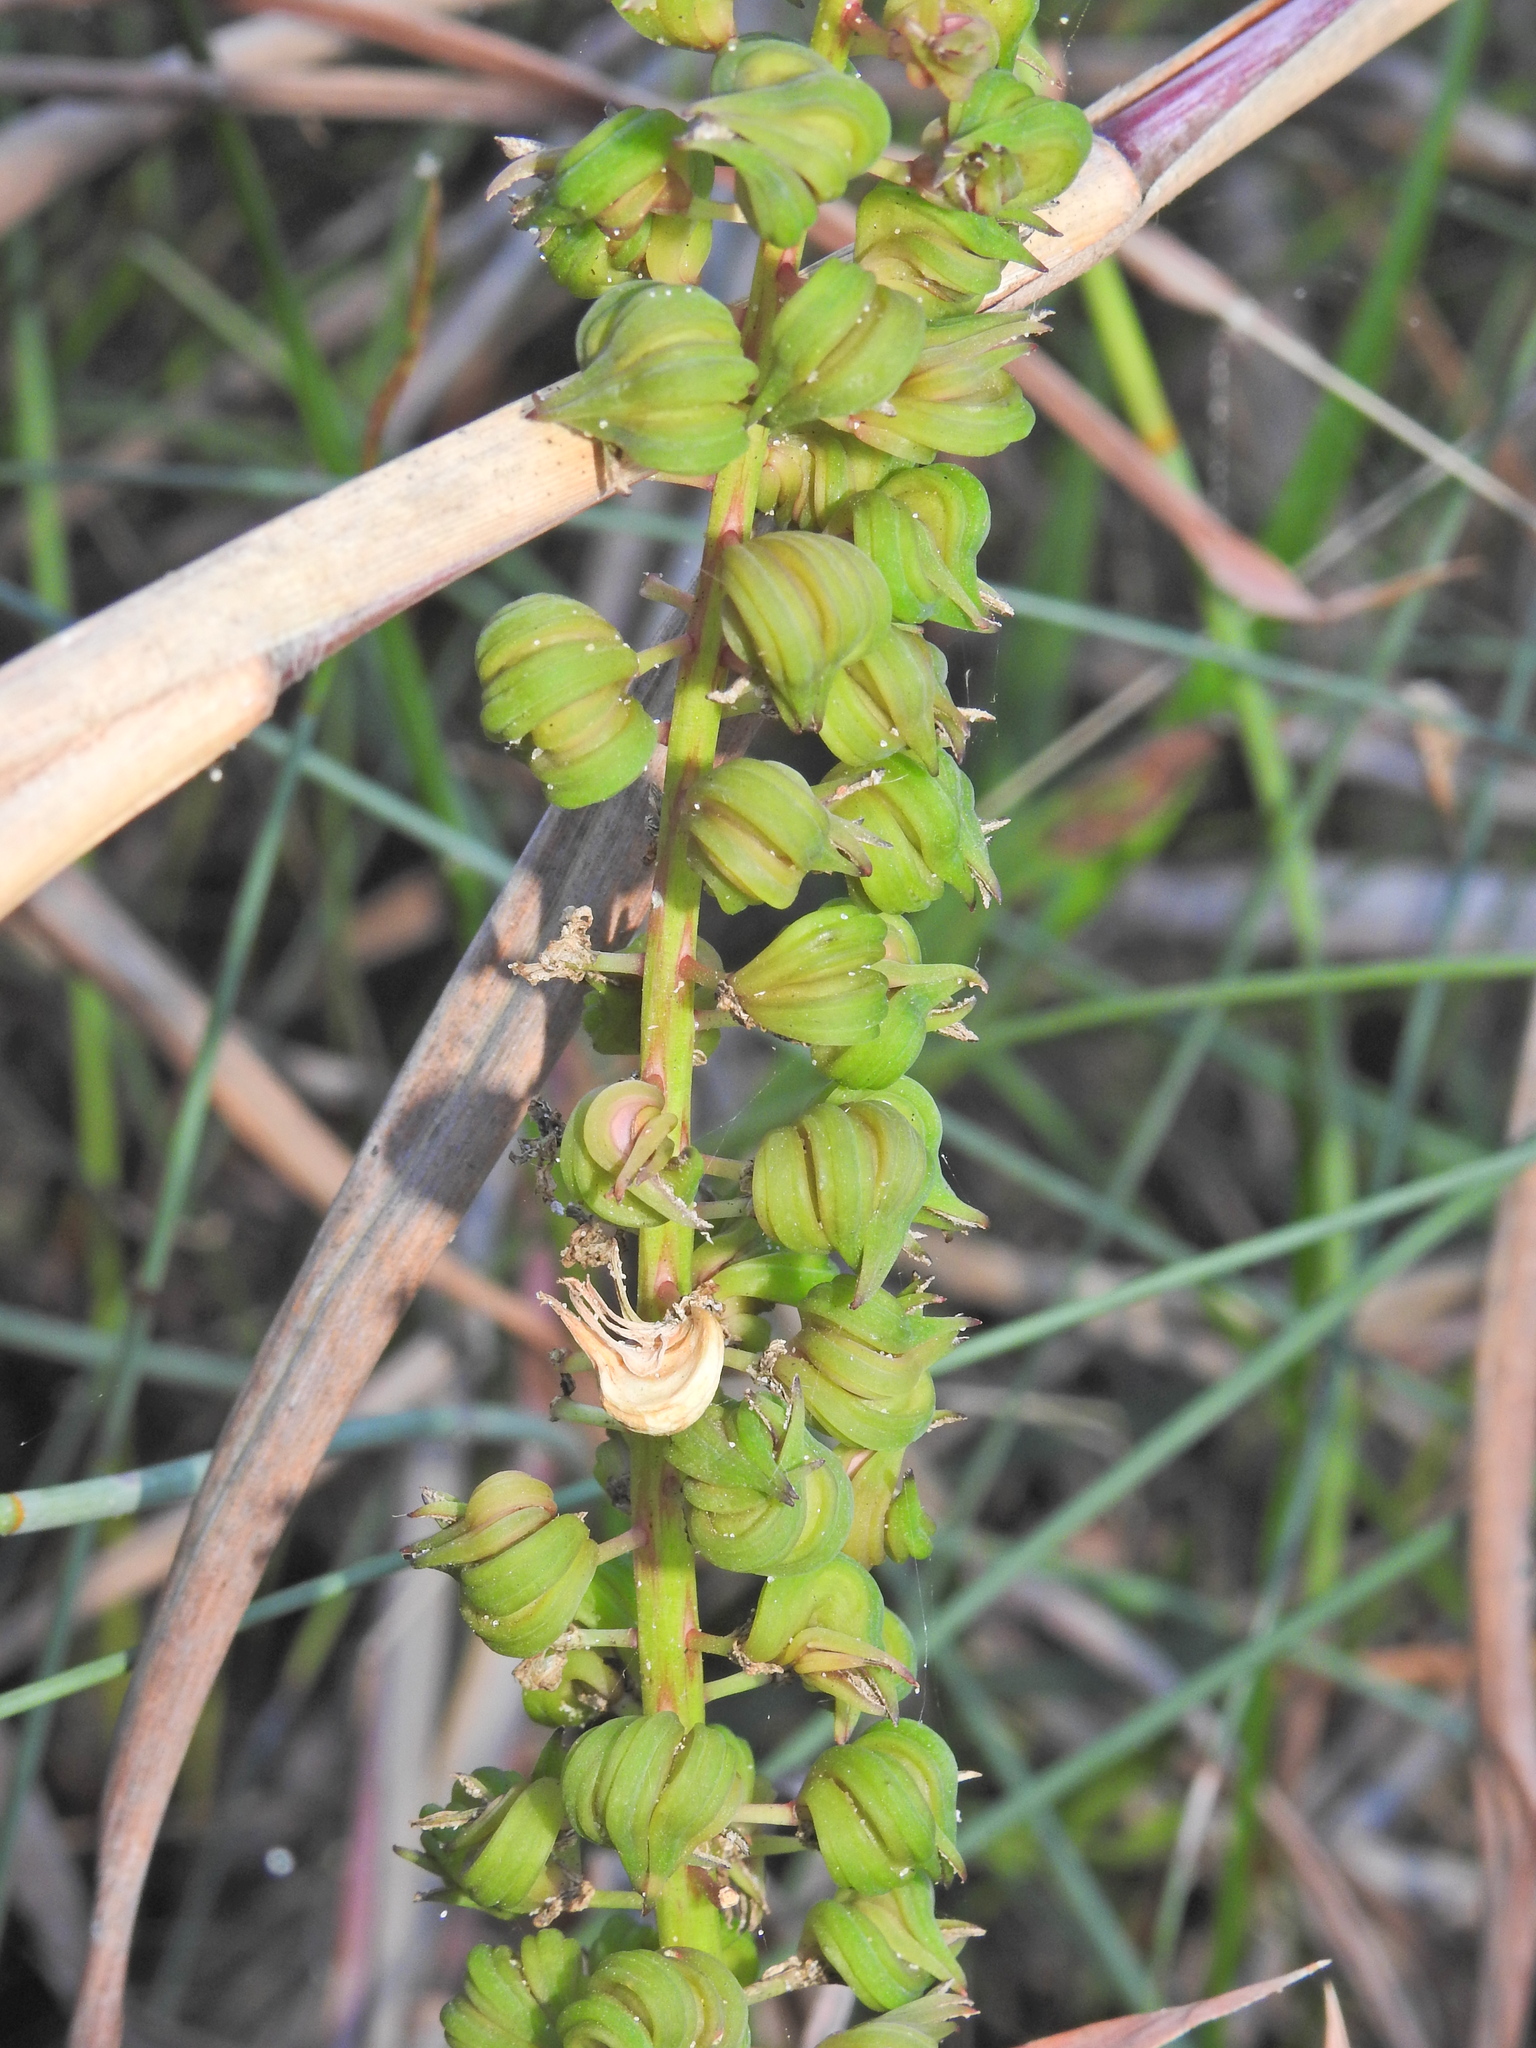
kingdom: Plantae
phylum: Tracheophyta
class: Liliopsida
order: Alismatales
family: Juncaginaceae
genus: Cycnogeton
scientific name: Cycnogeton procerum
